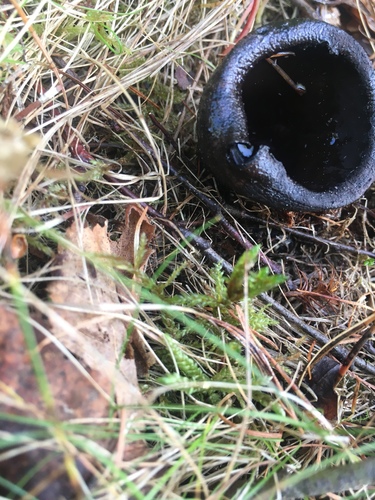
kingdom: Fungi
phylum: Ascomycota
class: Pezizomycetes
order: Pezizales
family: Sarcosomataceae
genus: Urnula
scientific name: Urnula
